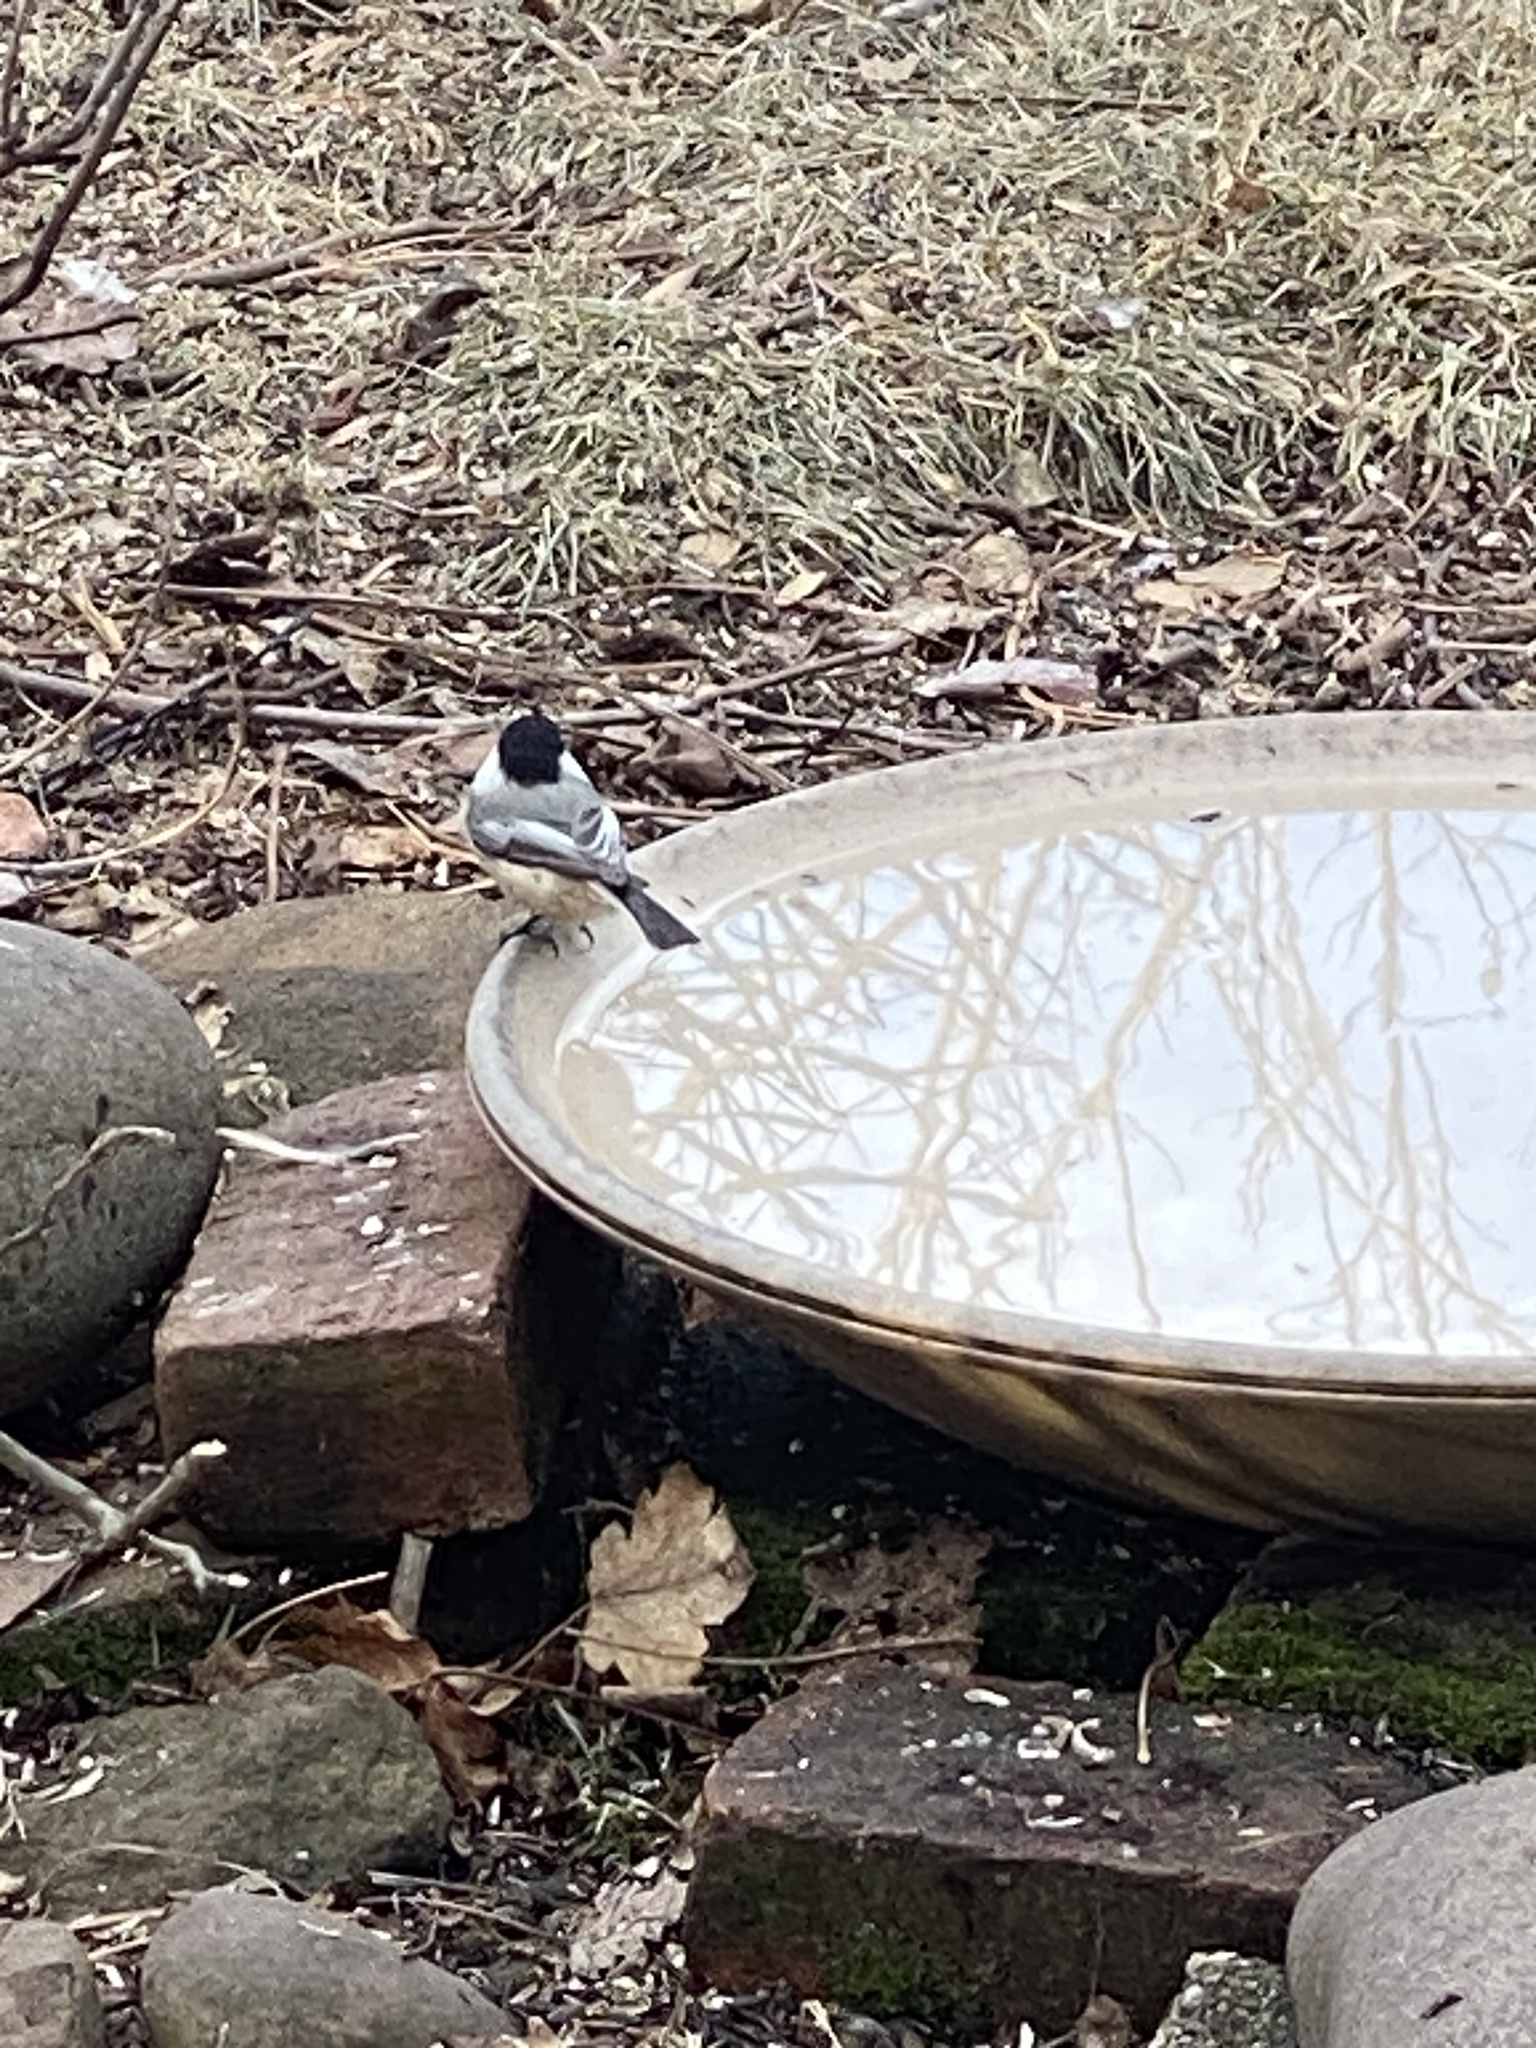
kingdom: Animalia
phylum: Chordata
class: Aves
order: Passeriformes
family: Paridae
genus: Poecile
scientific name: Poecile atricapillus
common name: Black-capped chickadee
